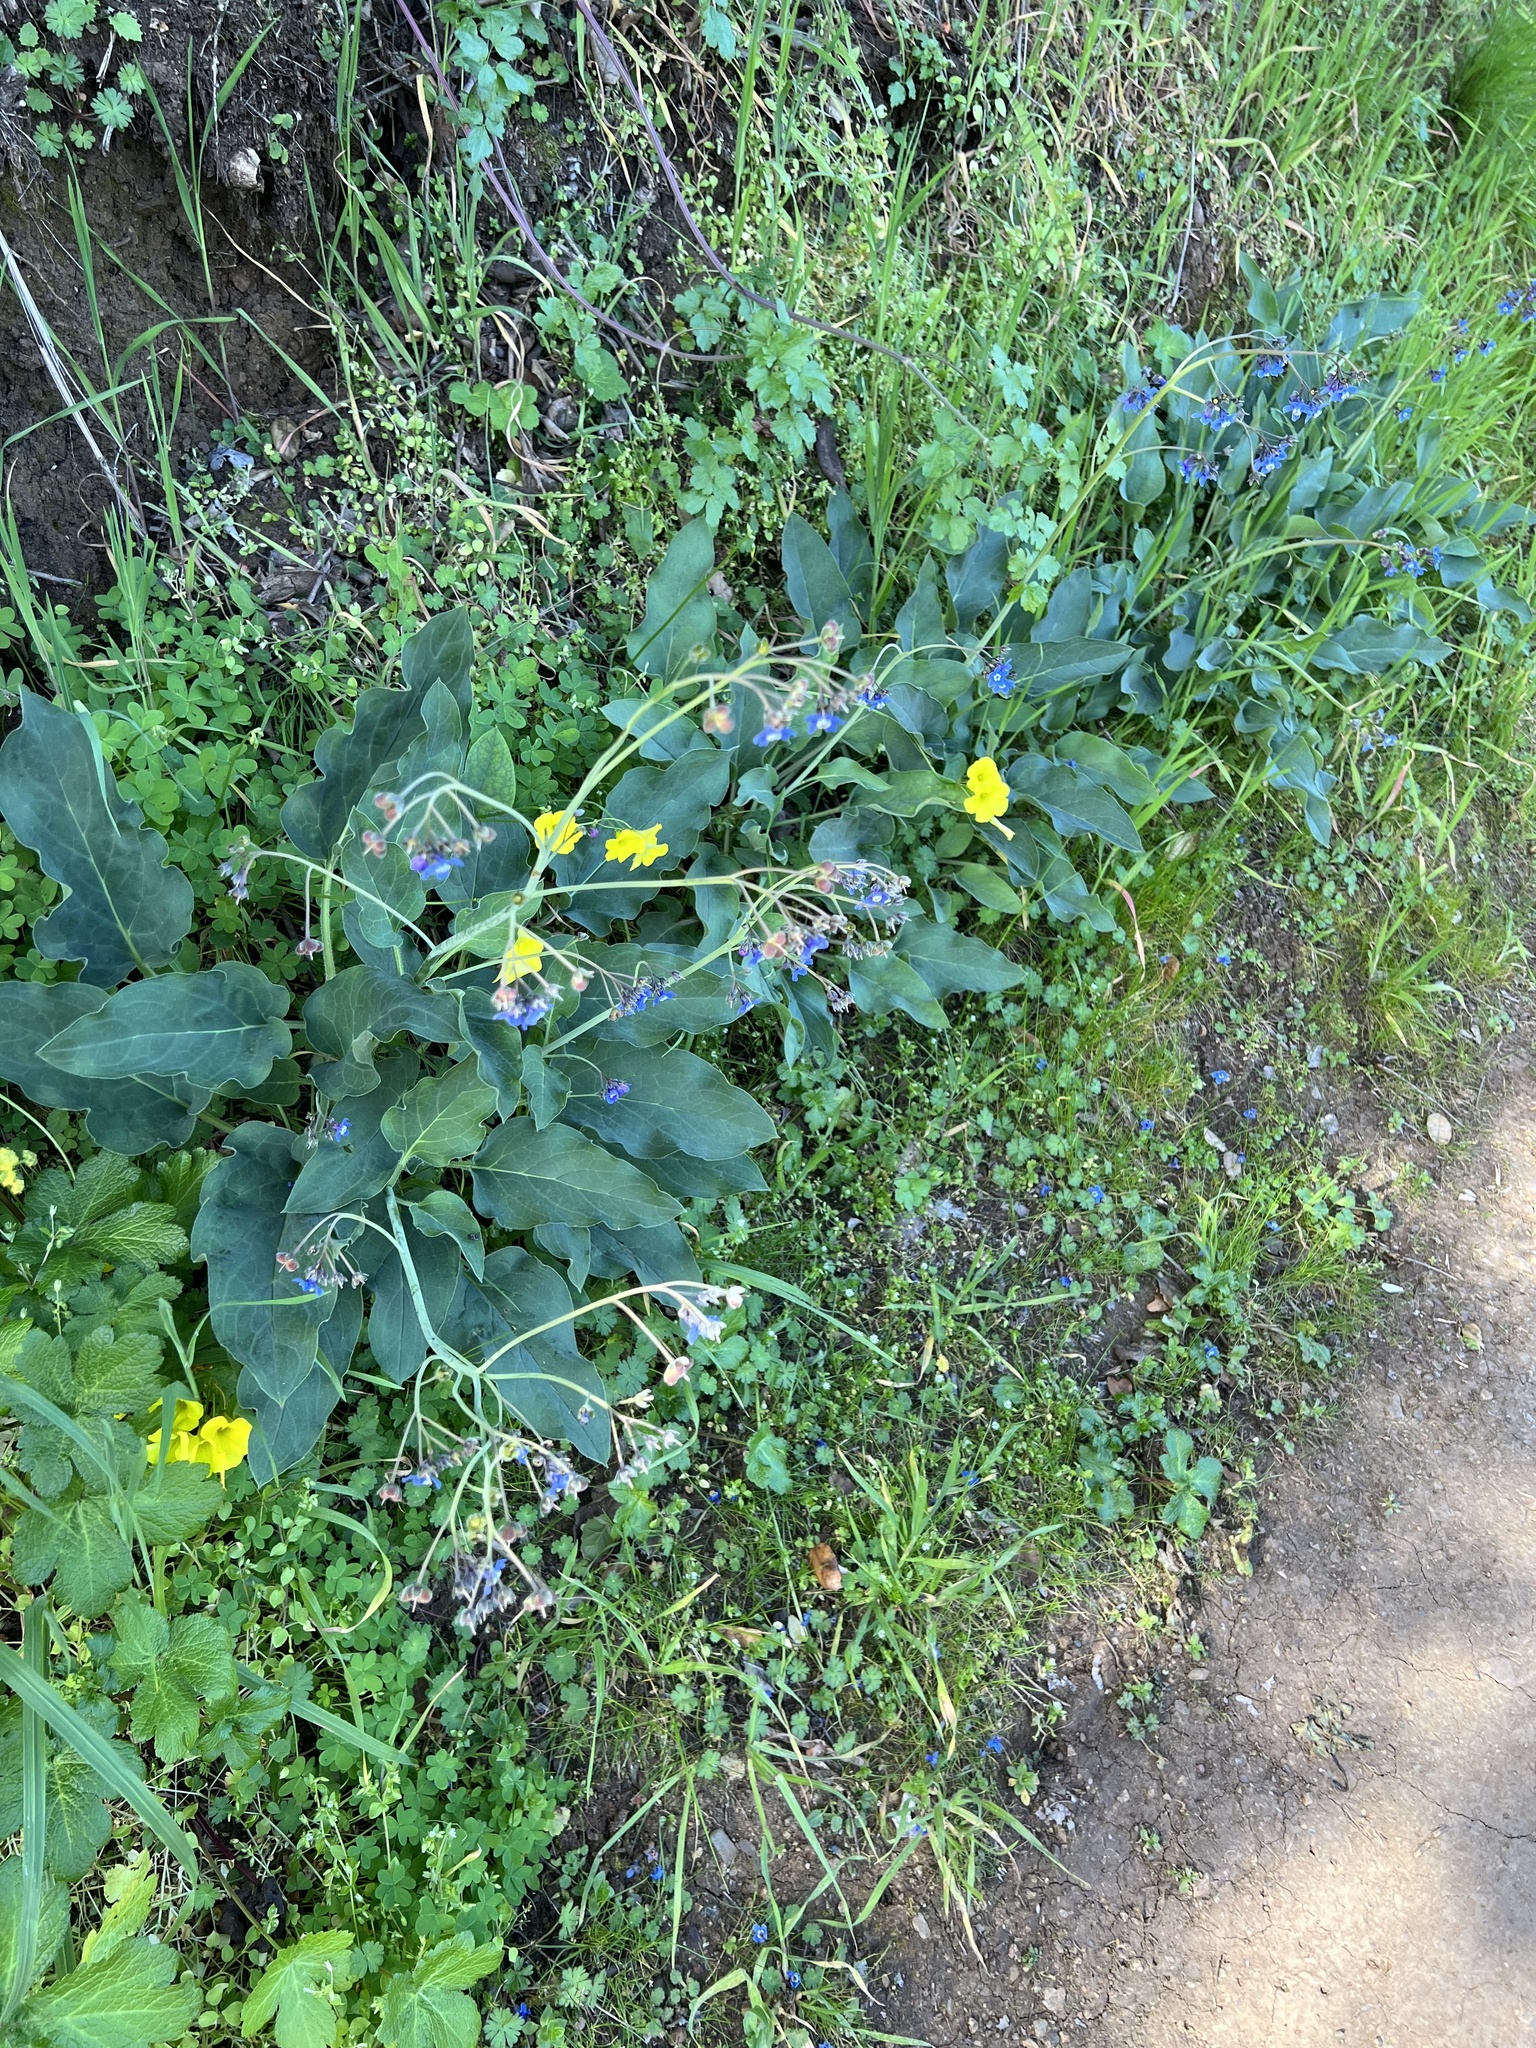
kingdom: Plantae
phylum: Tracheophyta
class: Magnoliopsida
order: Boraginales
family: Boraginaceae
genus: Adelinia
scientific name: Adelinia grande
